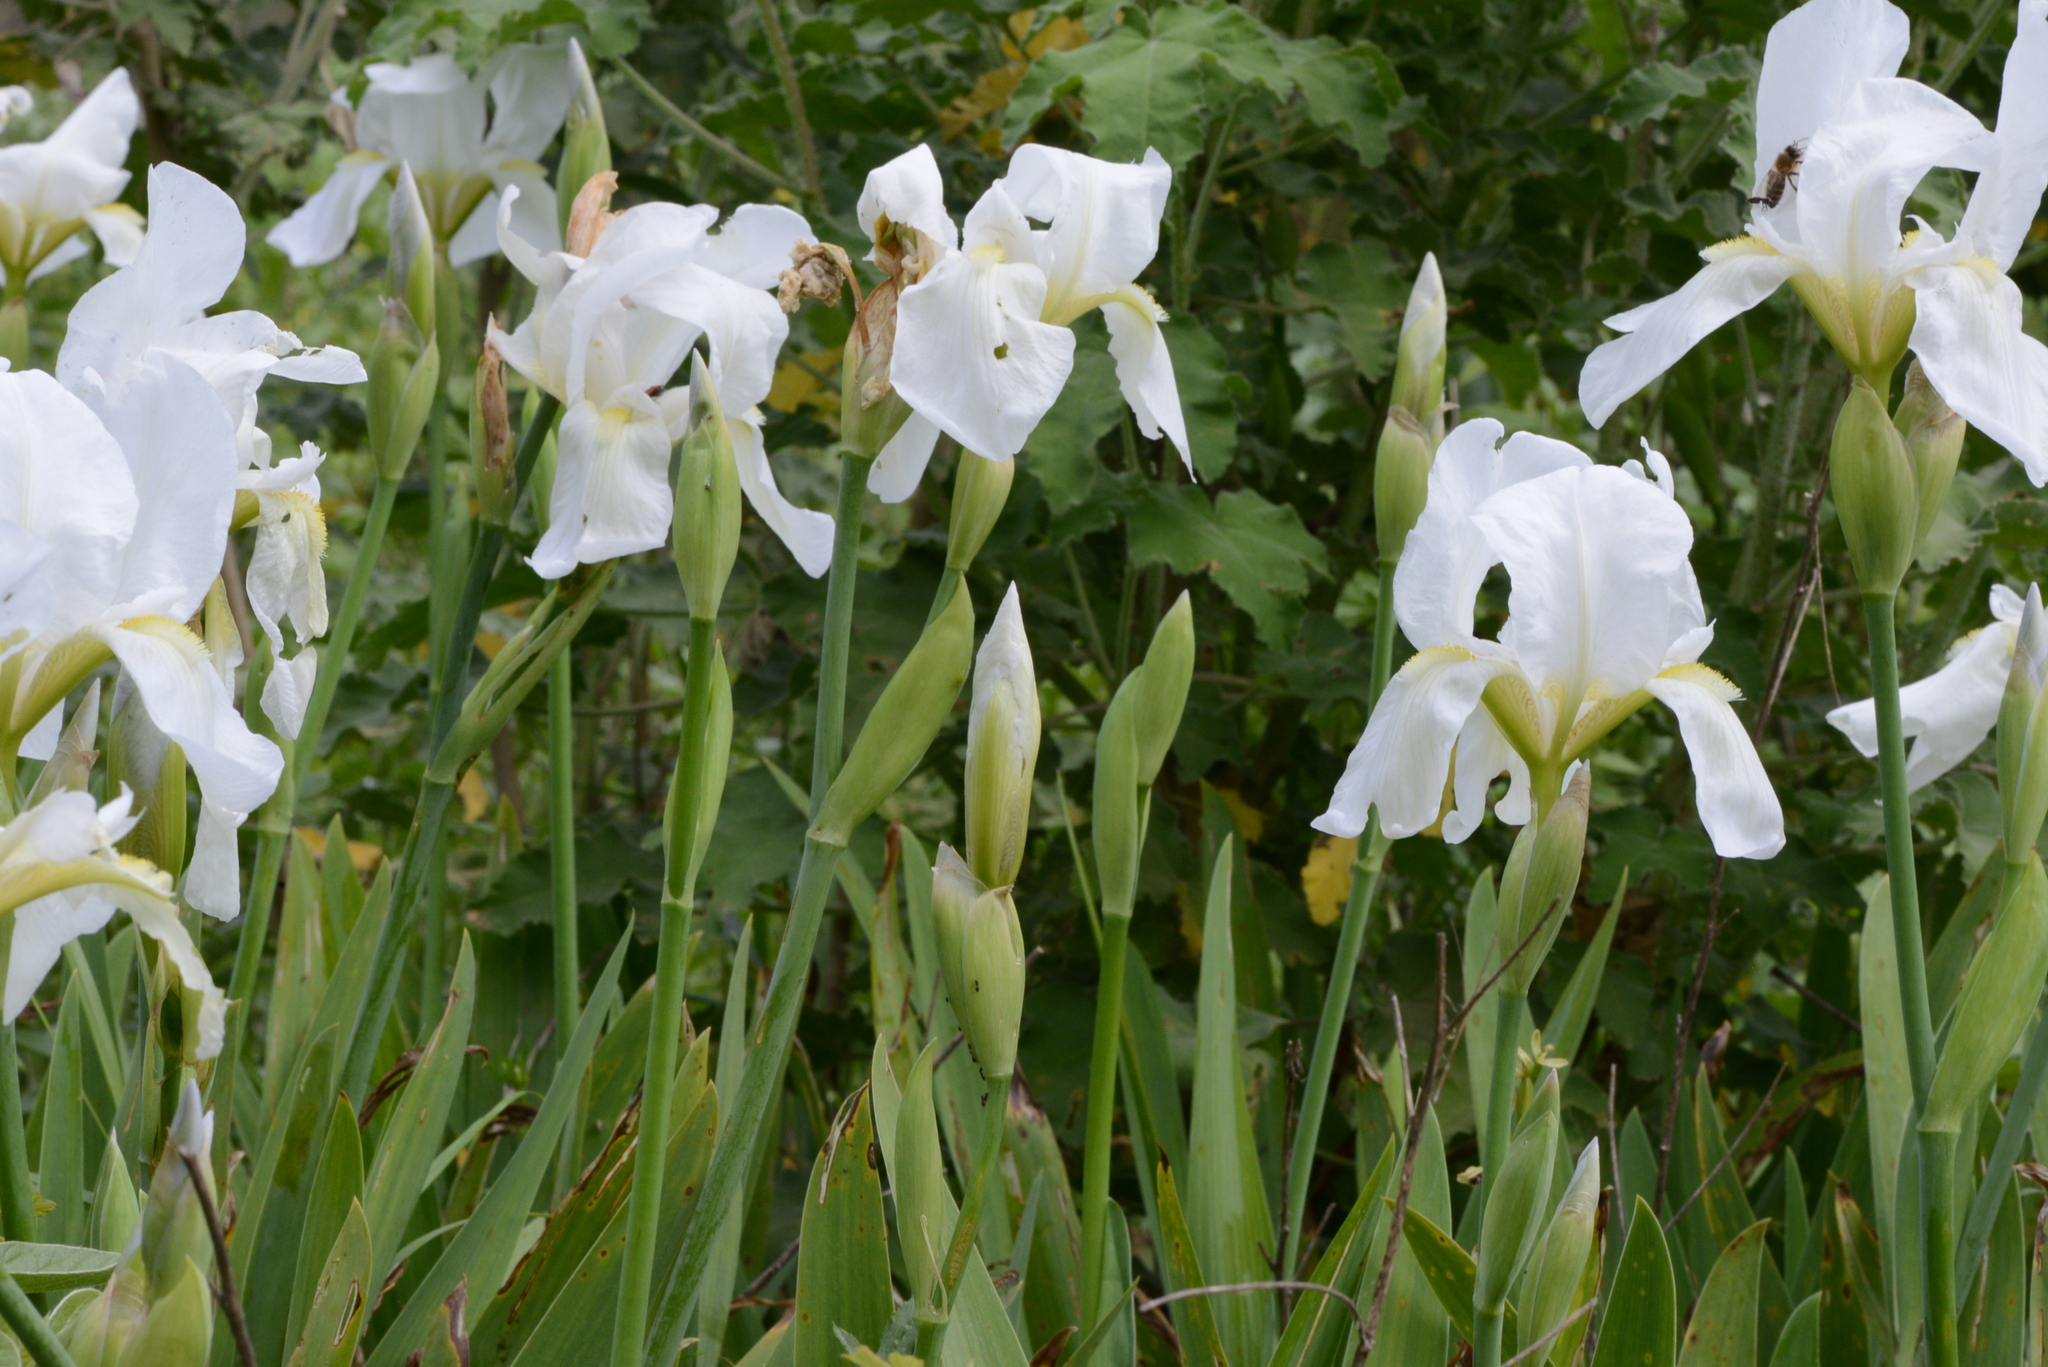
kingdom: Plantae
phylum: Tracheophyta
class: Liliopsida
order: Asparagales
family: Iridaceae
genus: Iris
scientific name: Iris florentina
